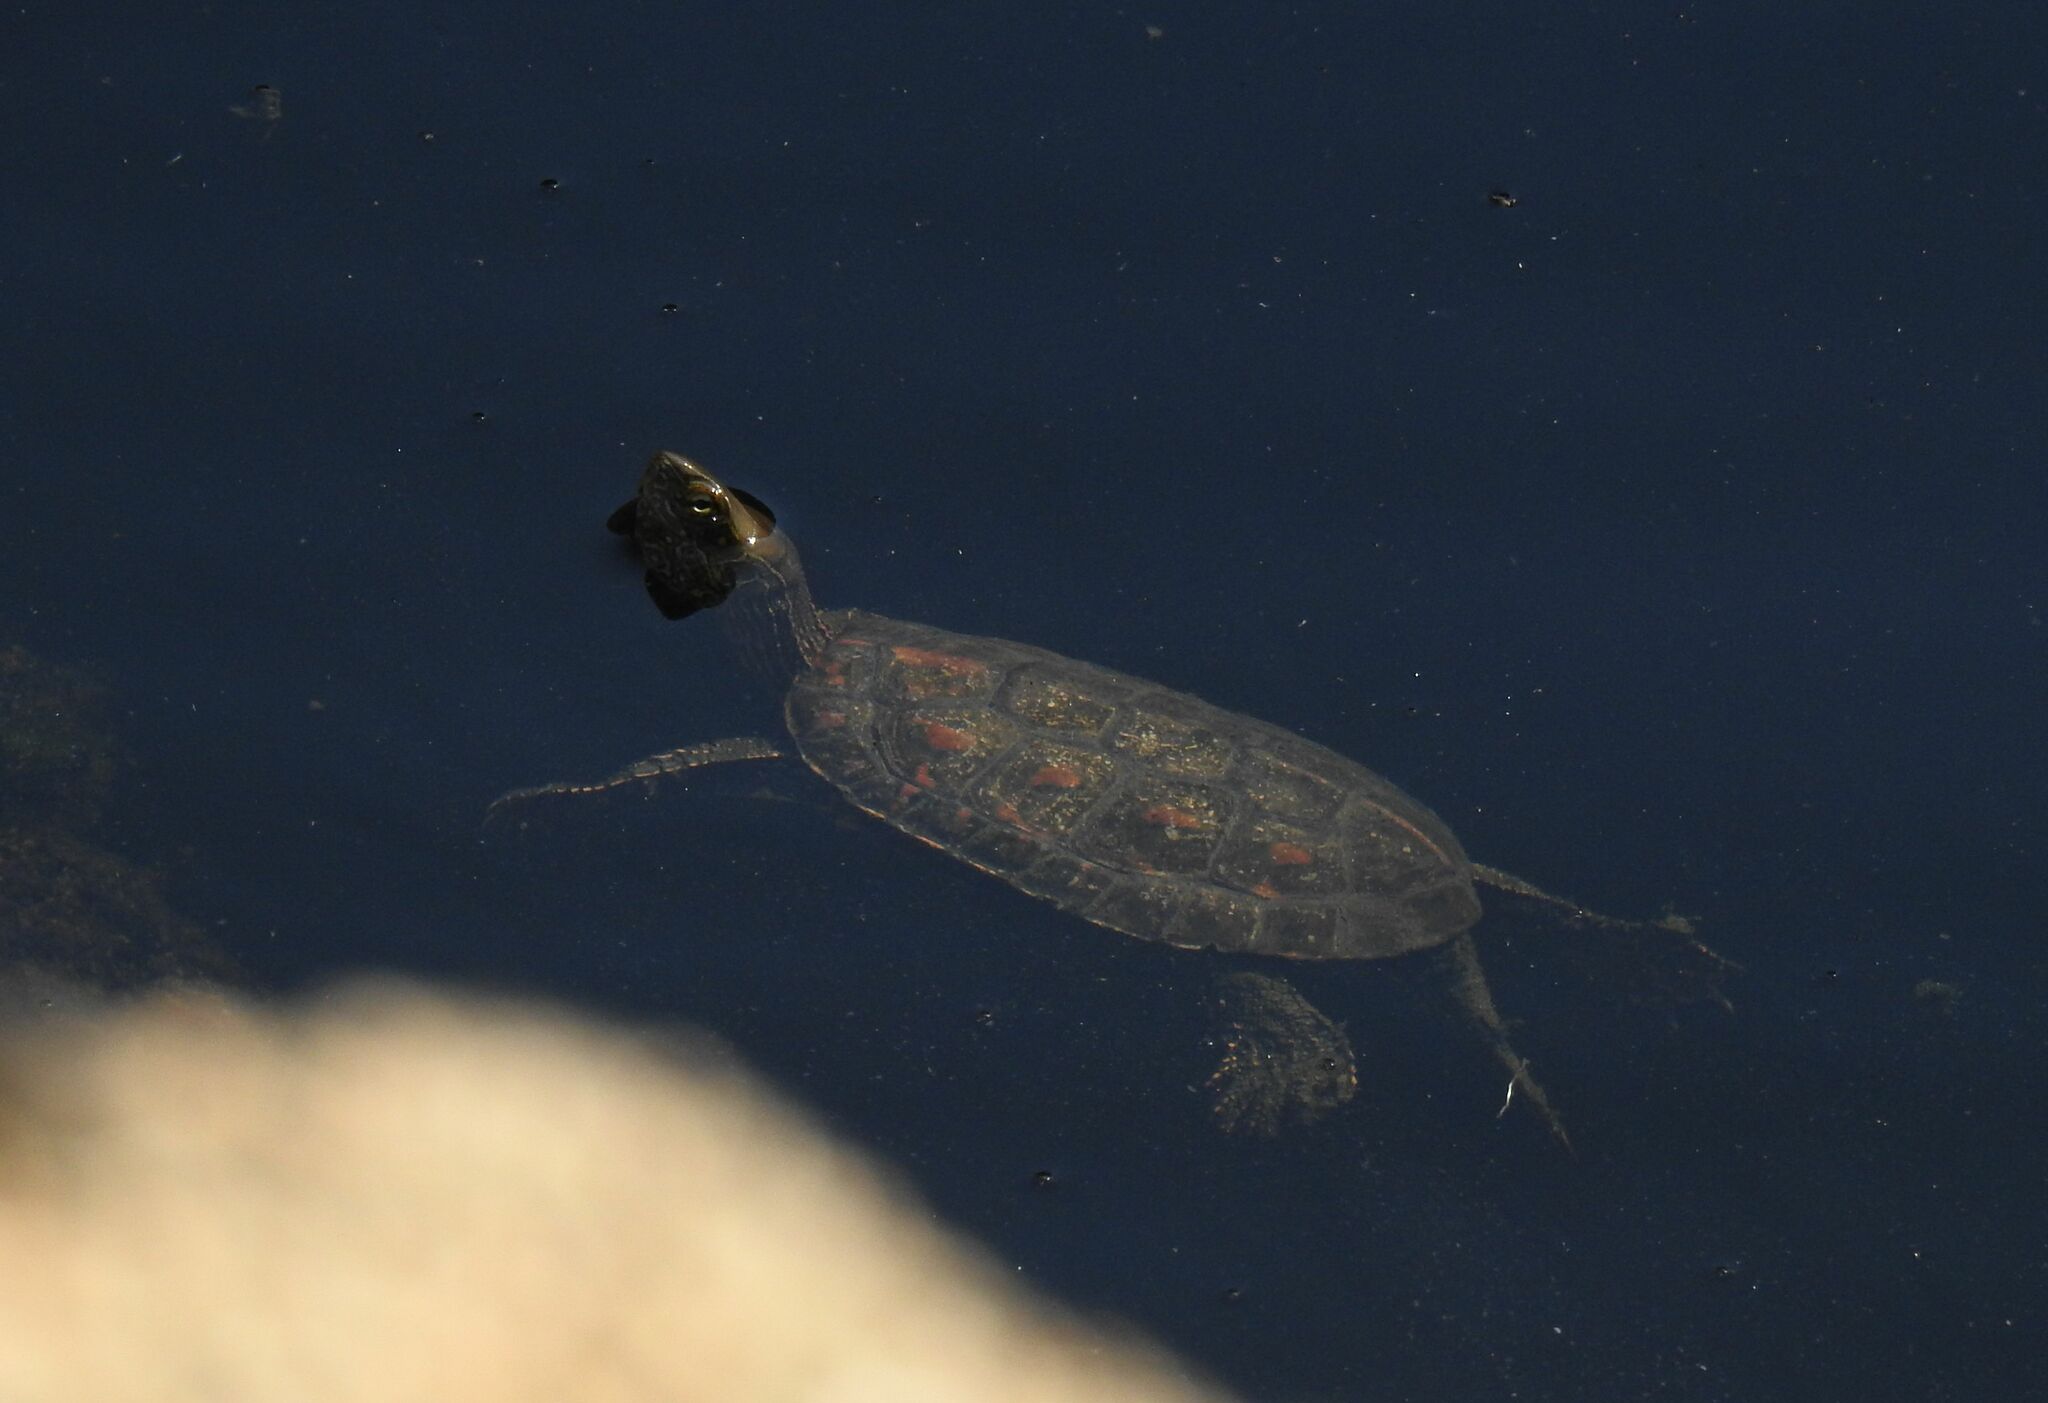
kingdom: Animalia
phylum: Chordata
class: Testudines
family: Geoemydidae
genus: Mauremys
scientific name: Mauremys leprosa
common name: Mediterranean pond turtle
